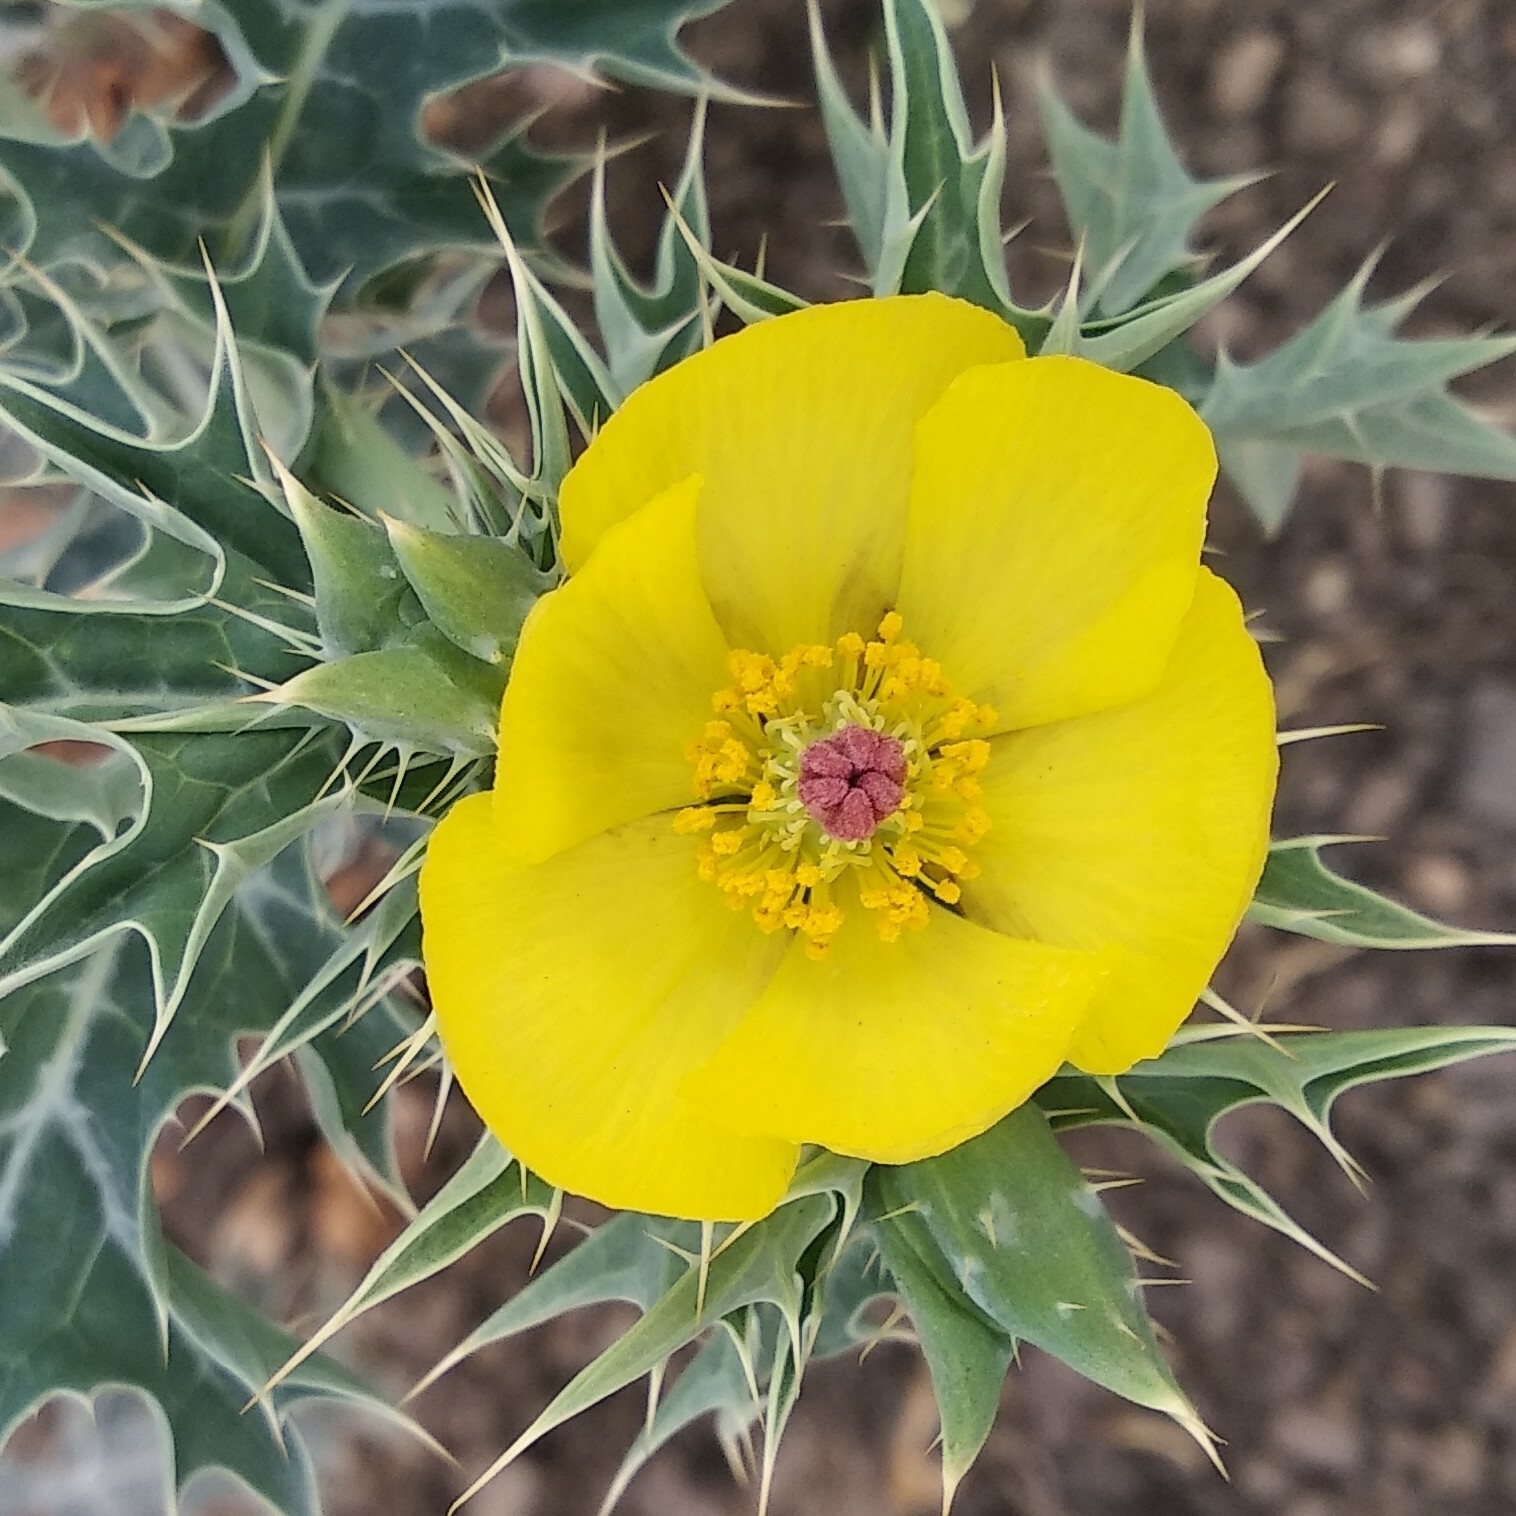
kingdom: Plantae
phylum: Tracheophyta
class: Magnoliopsida
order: Ranunculales
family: Papaveraceae
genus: Argemone
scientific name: Argemone mexicana
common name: Mexican poppy
